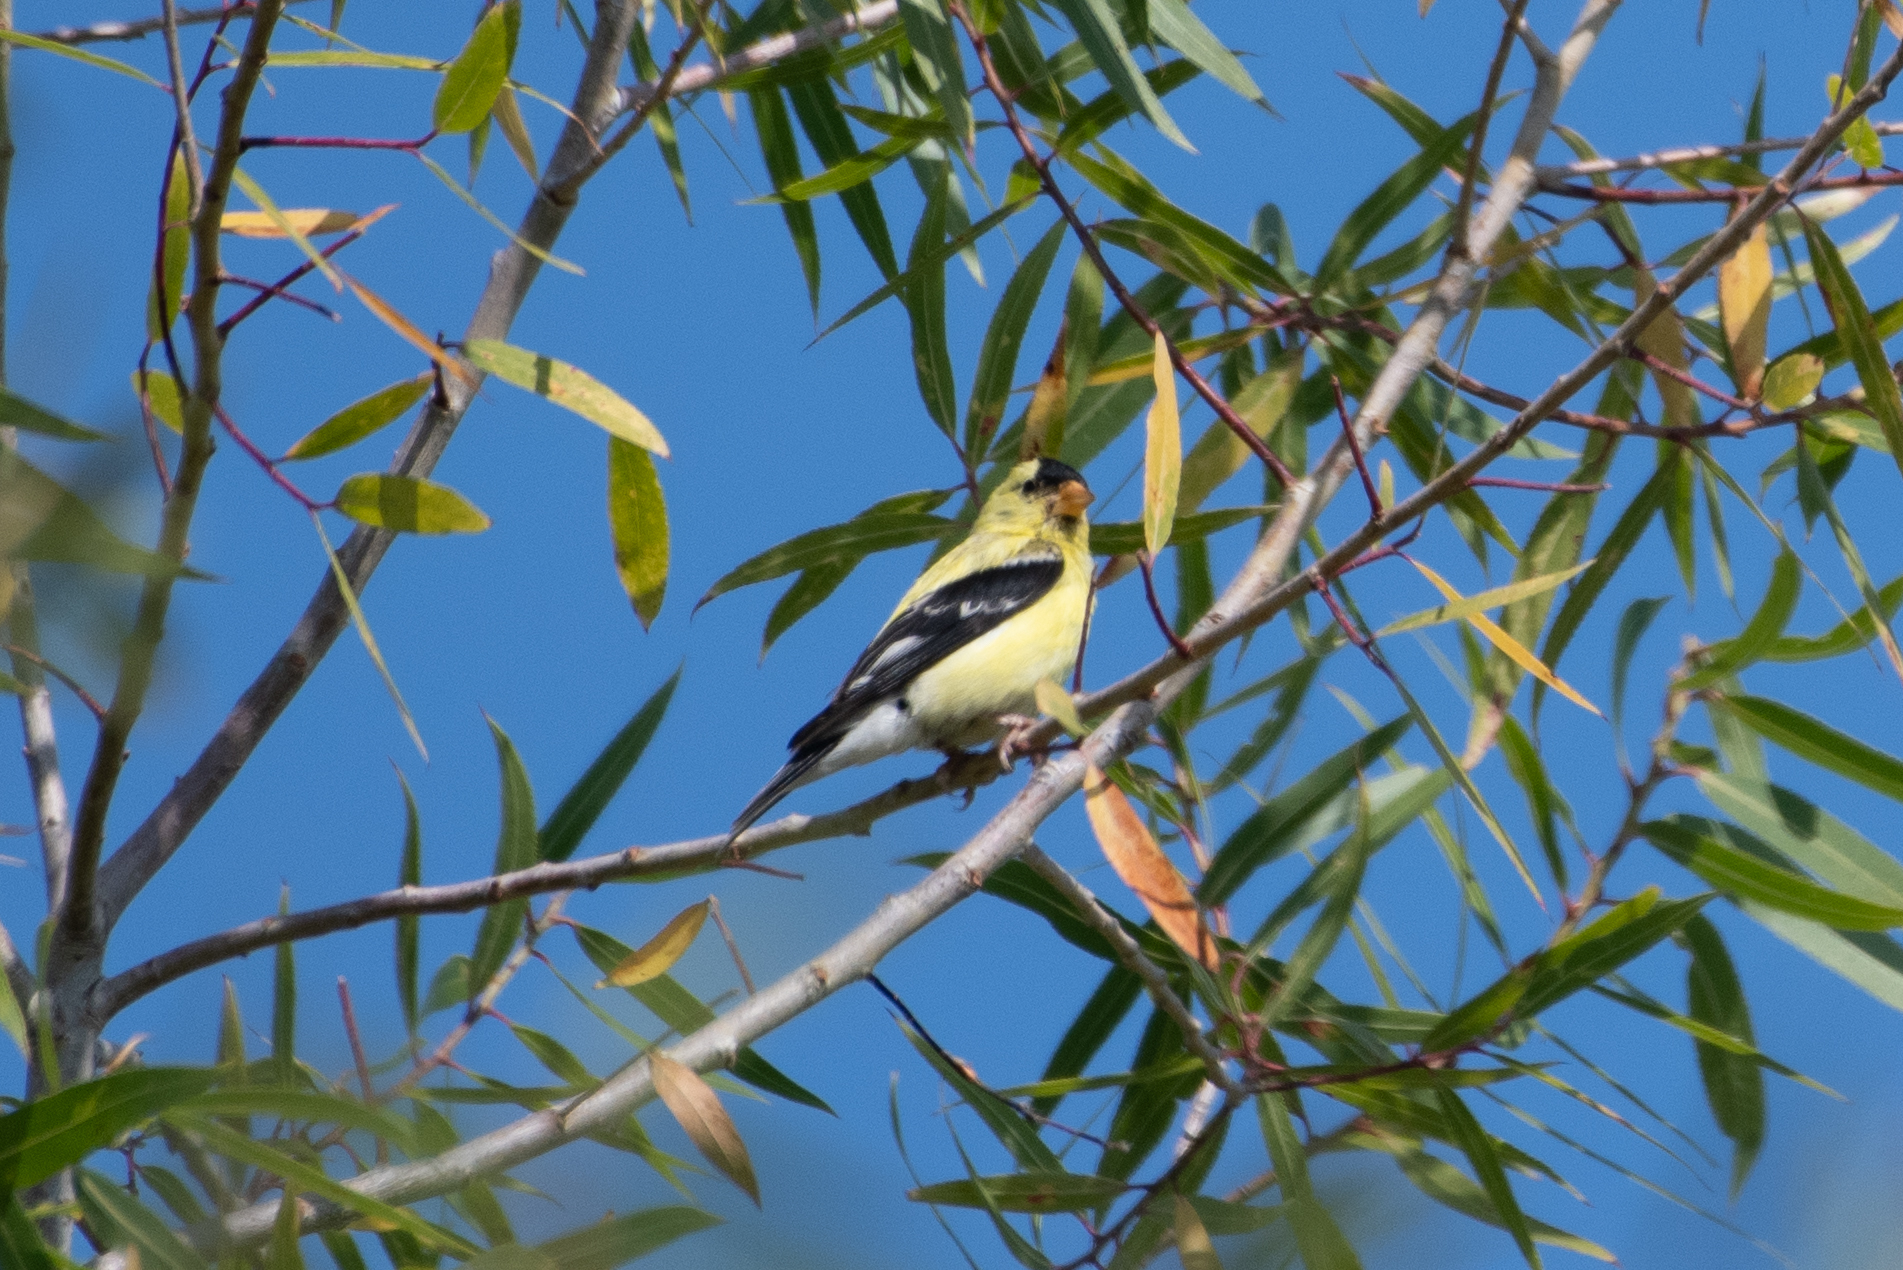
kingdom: Animalia
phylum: Chordata
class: Aves
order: Passeriformes
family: Fringillidae
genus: Spinus
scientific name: Spinus tristis
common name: American goldfinch
